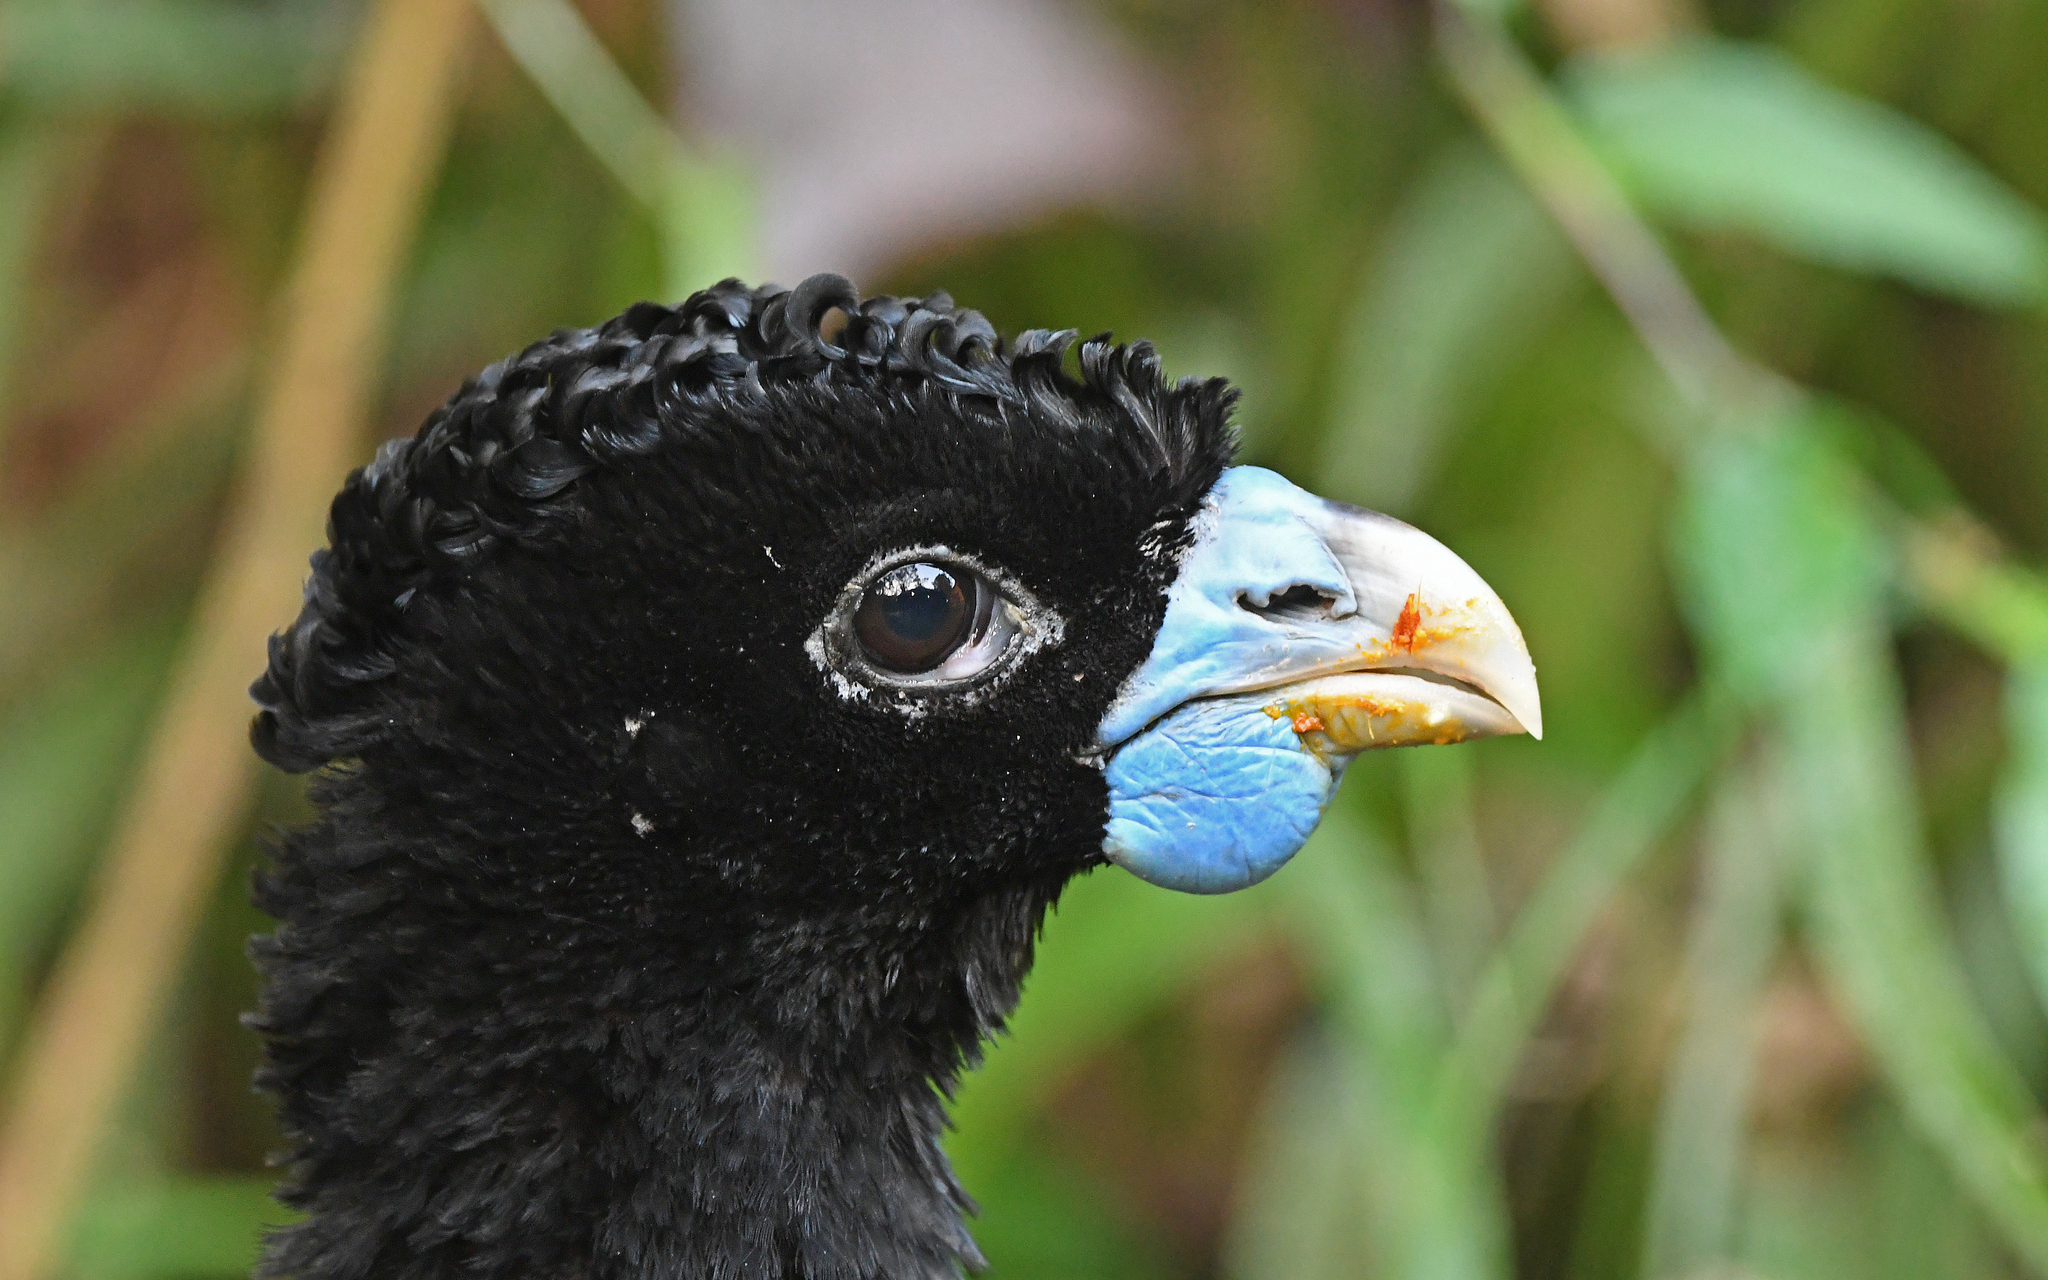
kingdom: Animalia
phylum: Chordata
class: Aves
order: Galliformes
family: Cracidae
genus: Crax
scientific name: Crax alberti
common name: Blue-billed curassow
